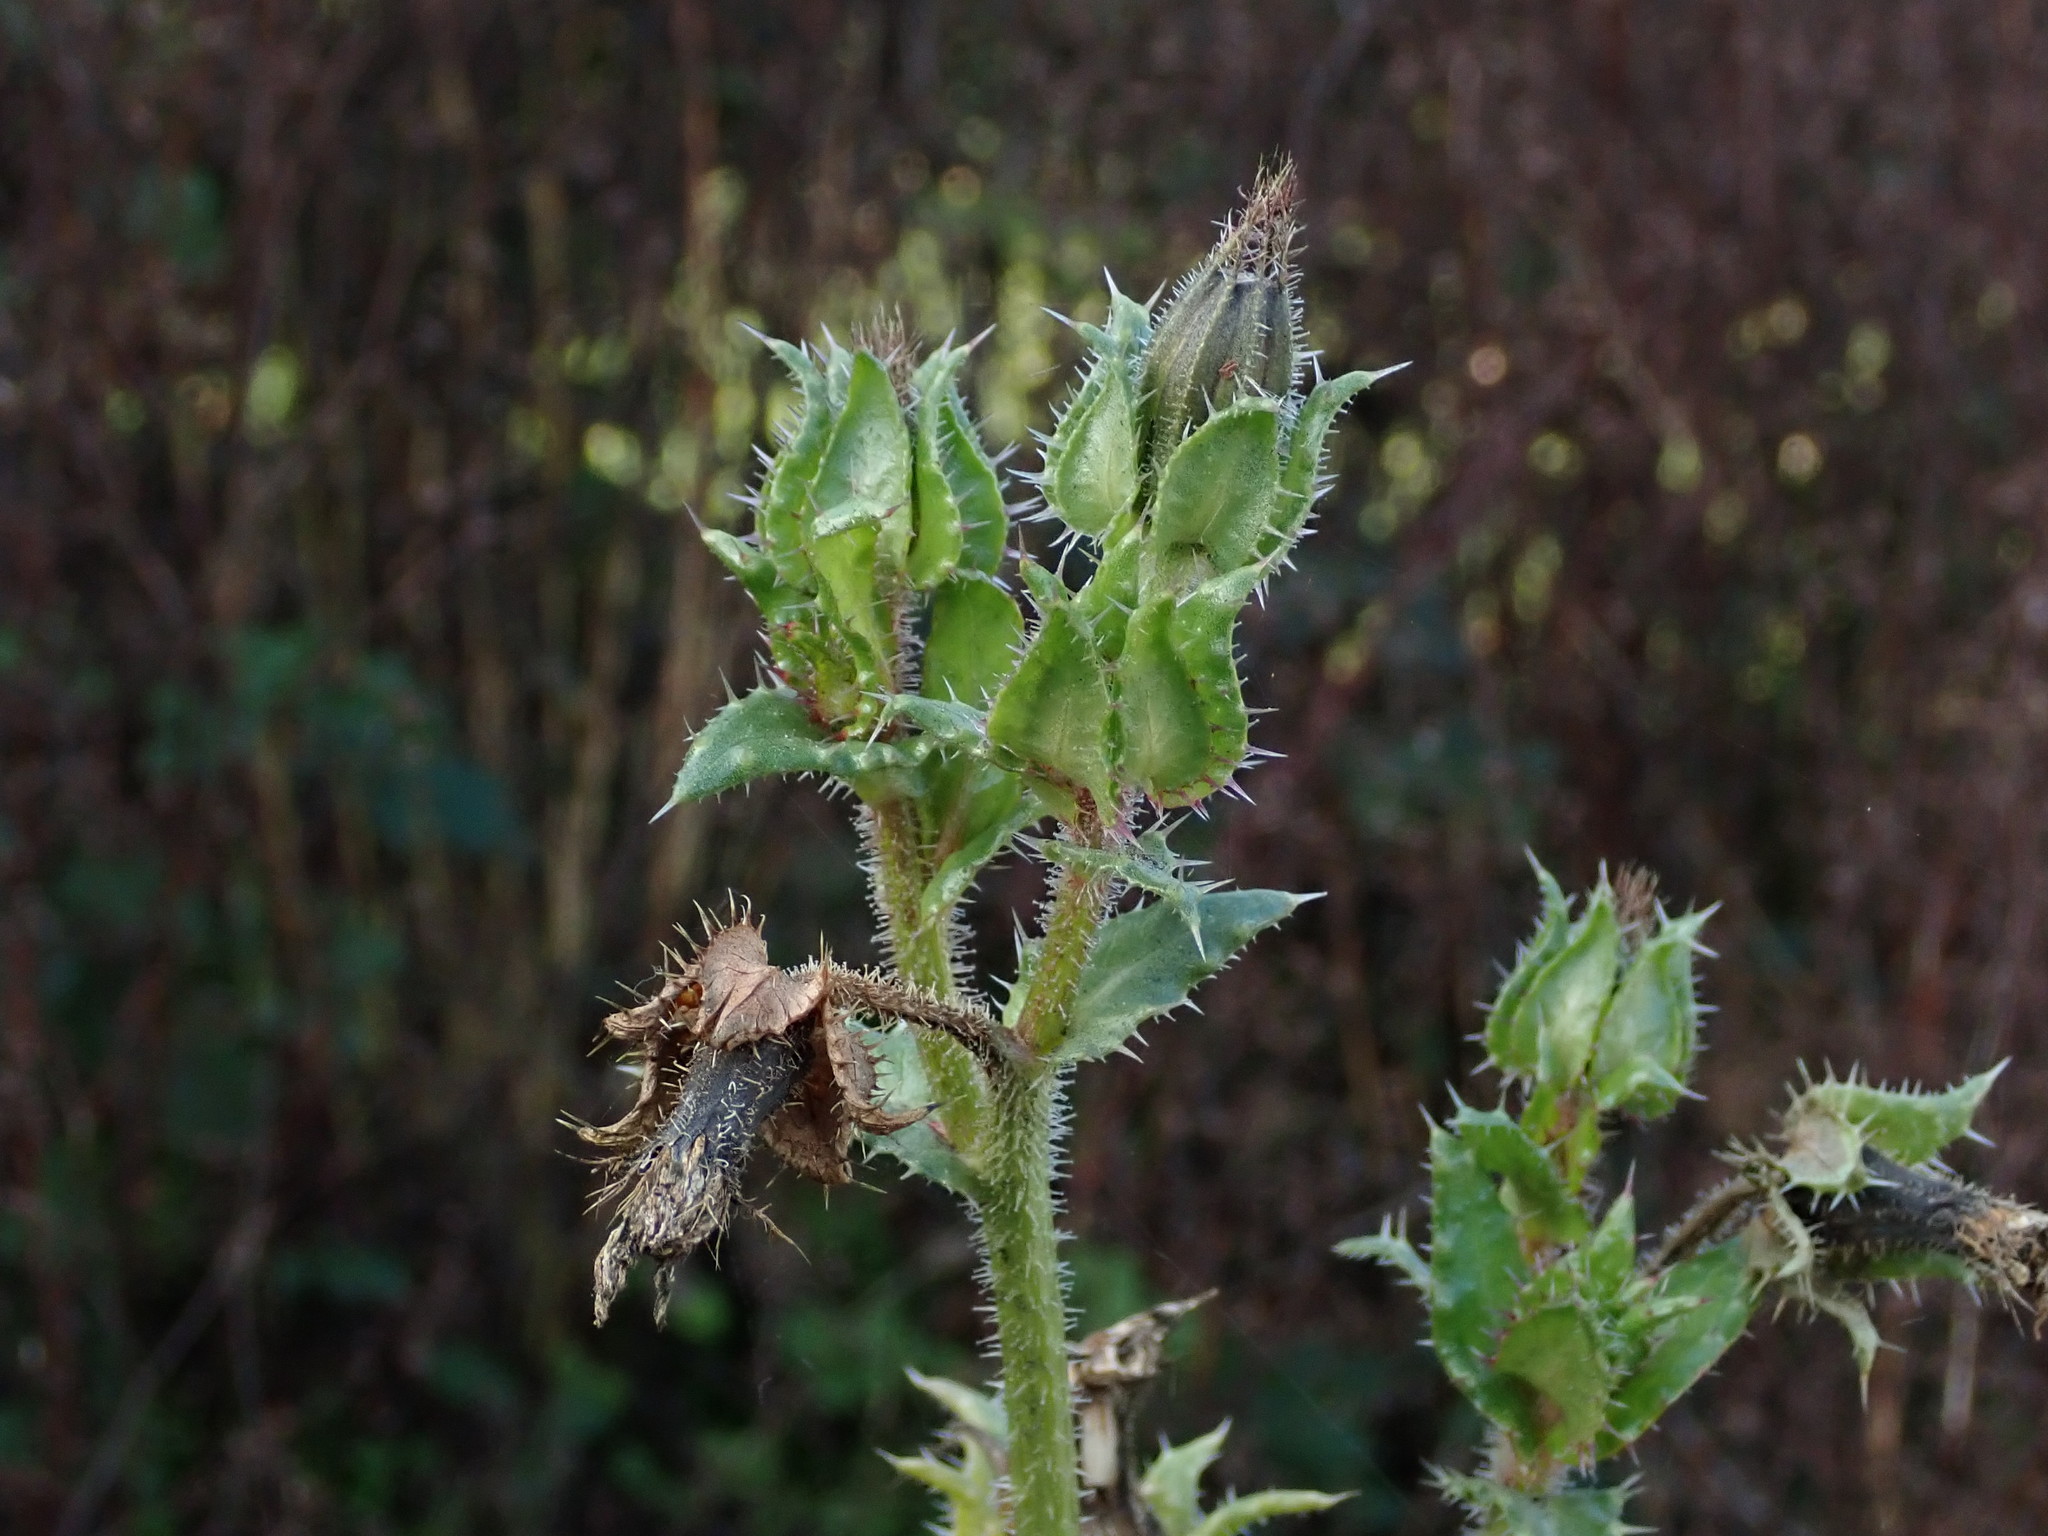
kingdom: Plantae
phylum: Tracheophyta
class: Magnoliopsida
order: Asterales
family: Asteraceae
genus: Helminthotheca
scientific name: Helminthotheca echioides
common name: Ox-tongue
